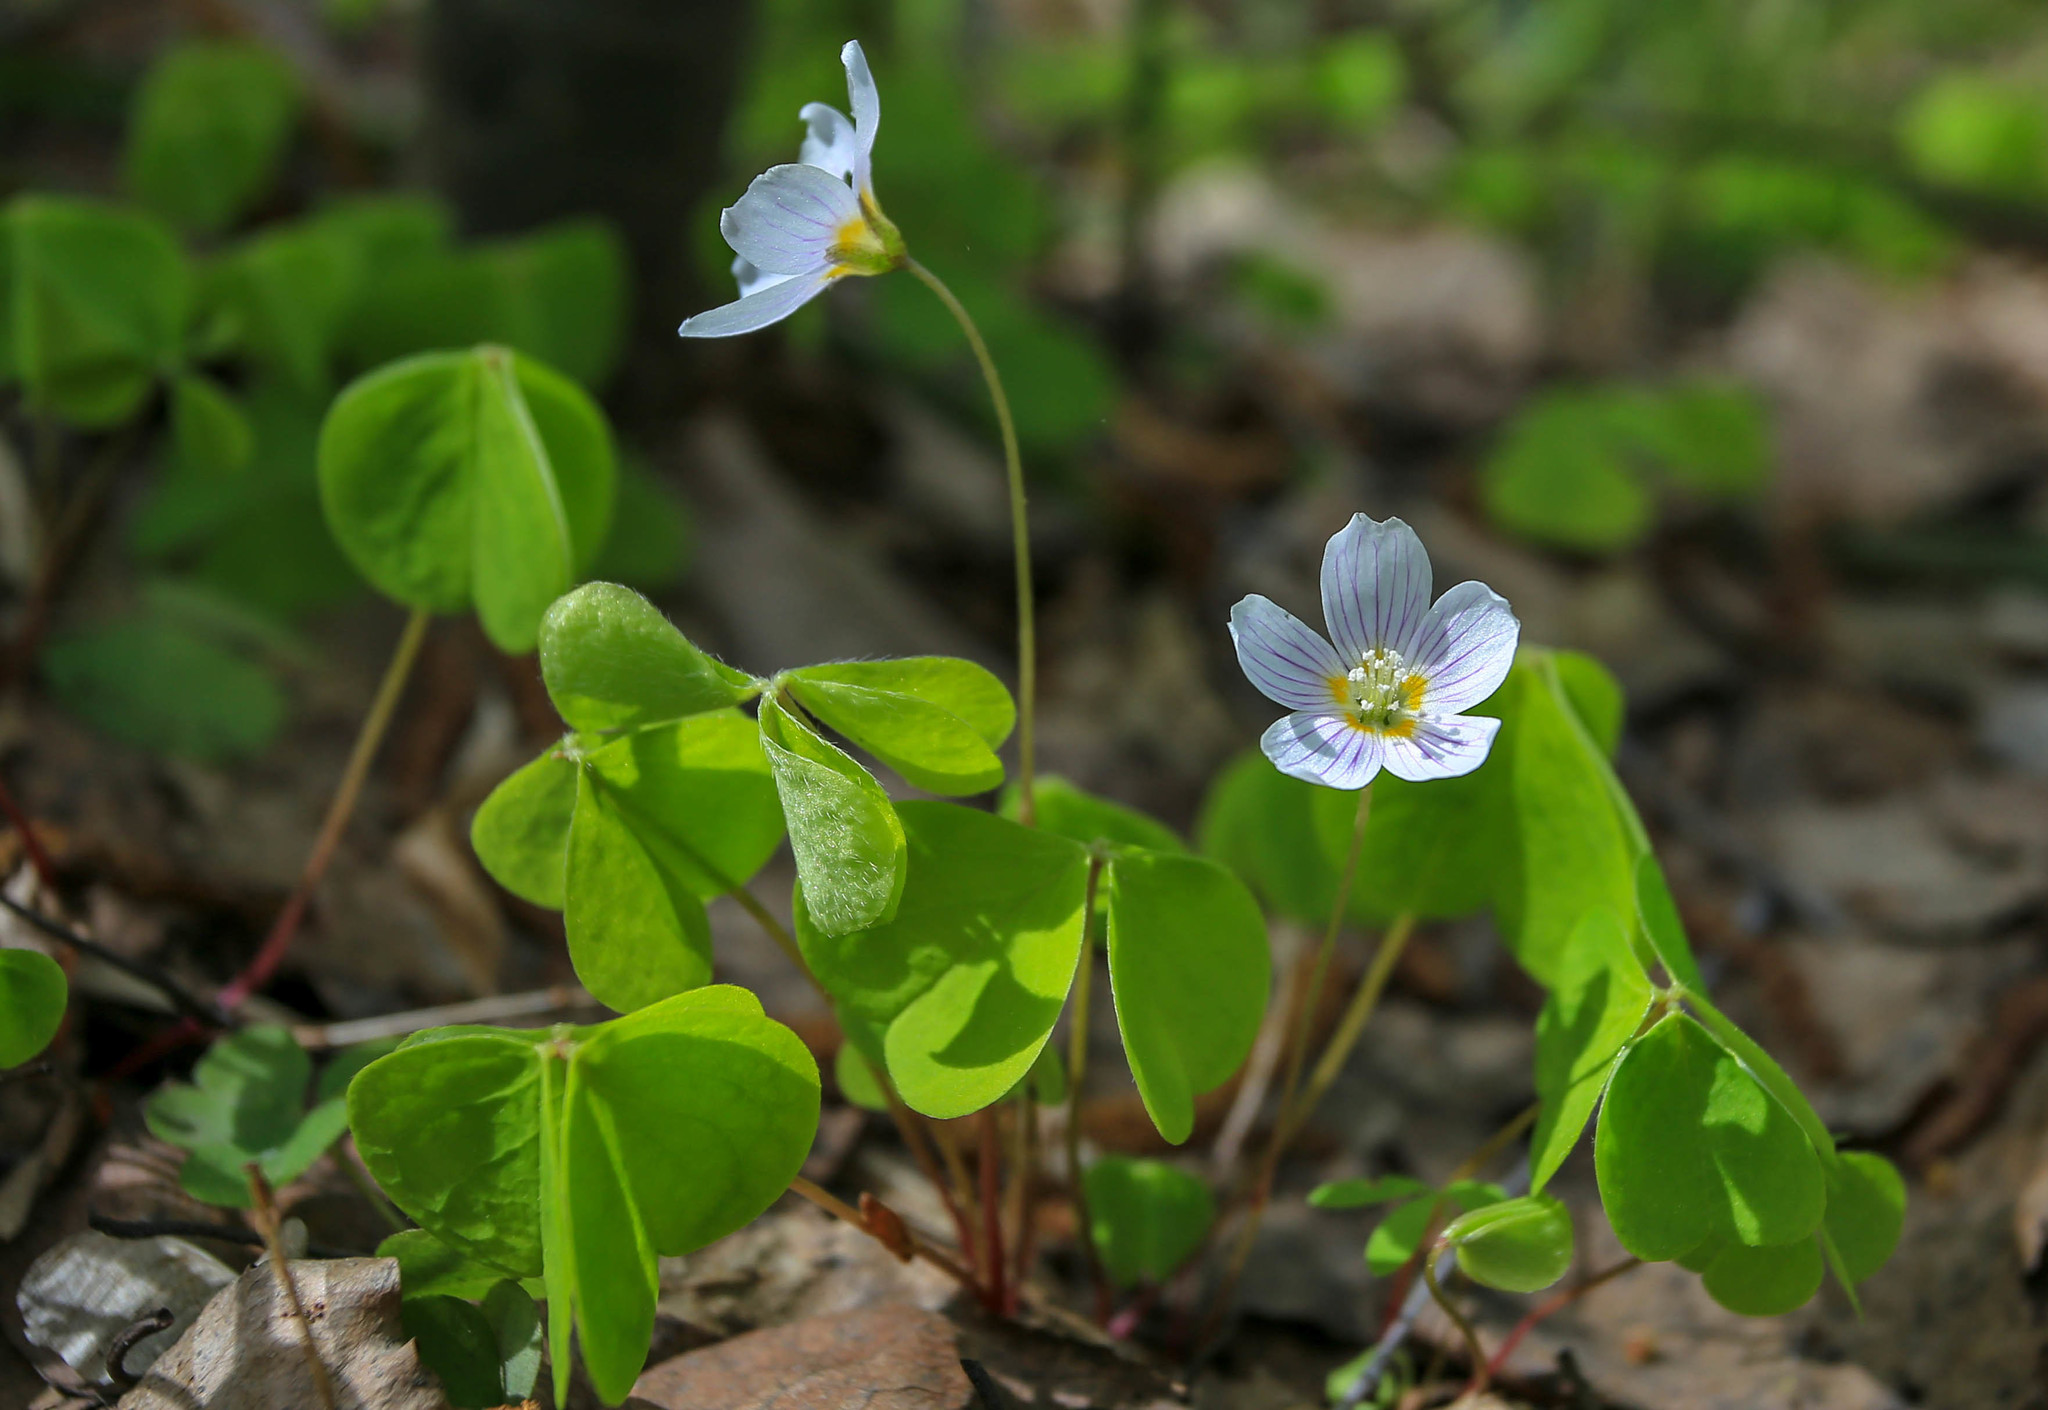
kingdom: Plantae
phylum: Tracheophyta
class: Magnoliopsida
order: Oxalidales
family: Oxalidaceae
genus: Oxalis
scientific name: Oxalis acetosella
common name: Wood-sorrel
